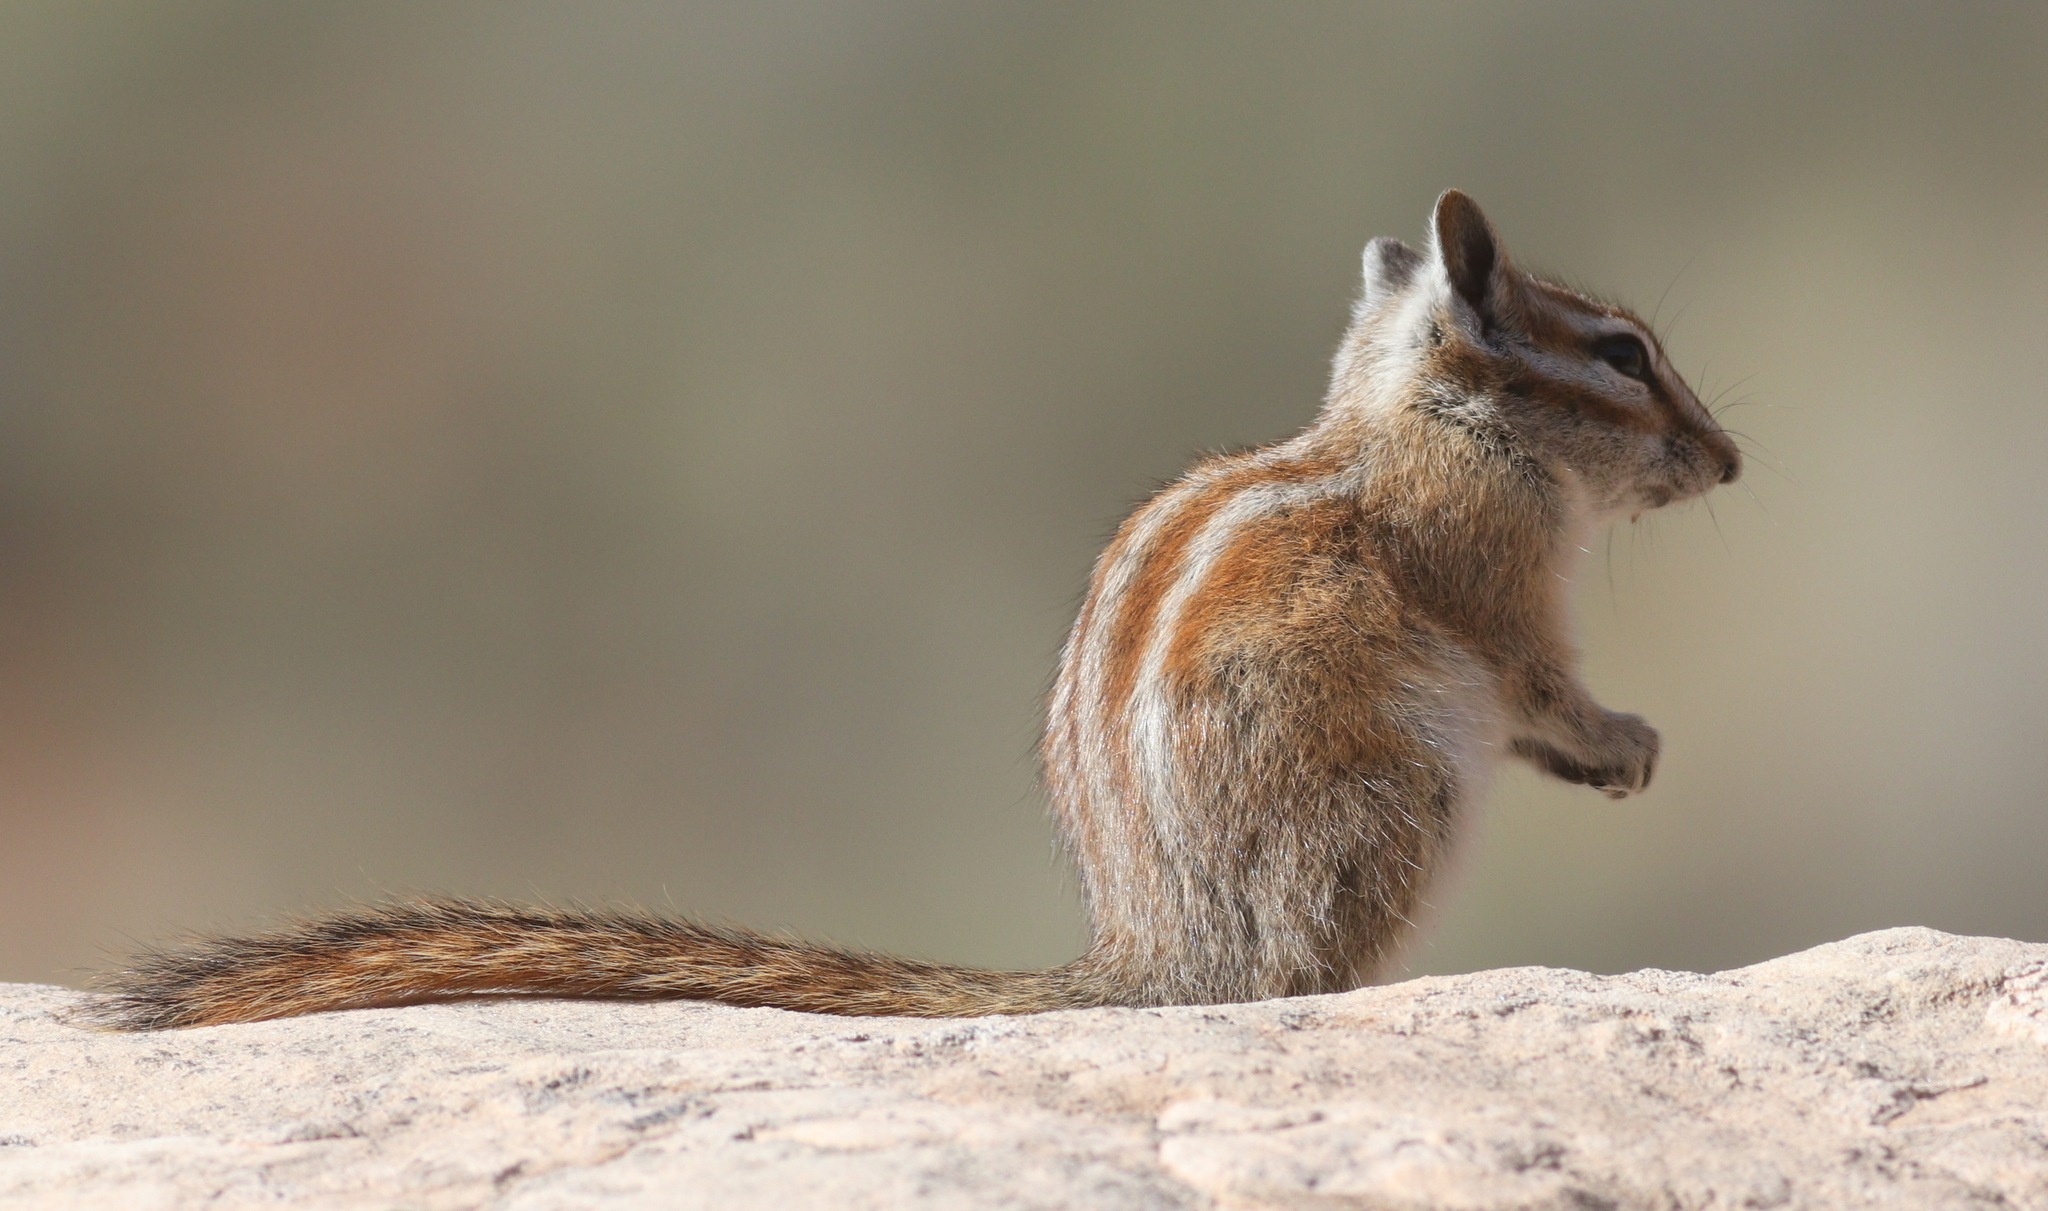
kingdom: Animalia
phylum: Chordata
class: Mammalia
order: Rodentia
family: Sciuridae
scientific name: Sciuridae
